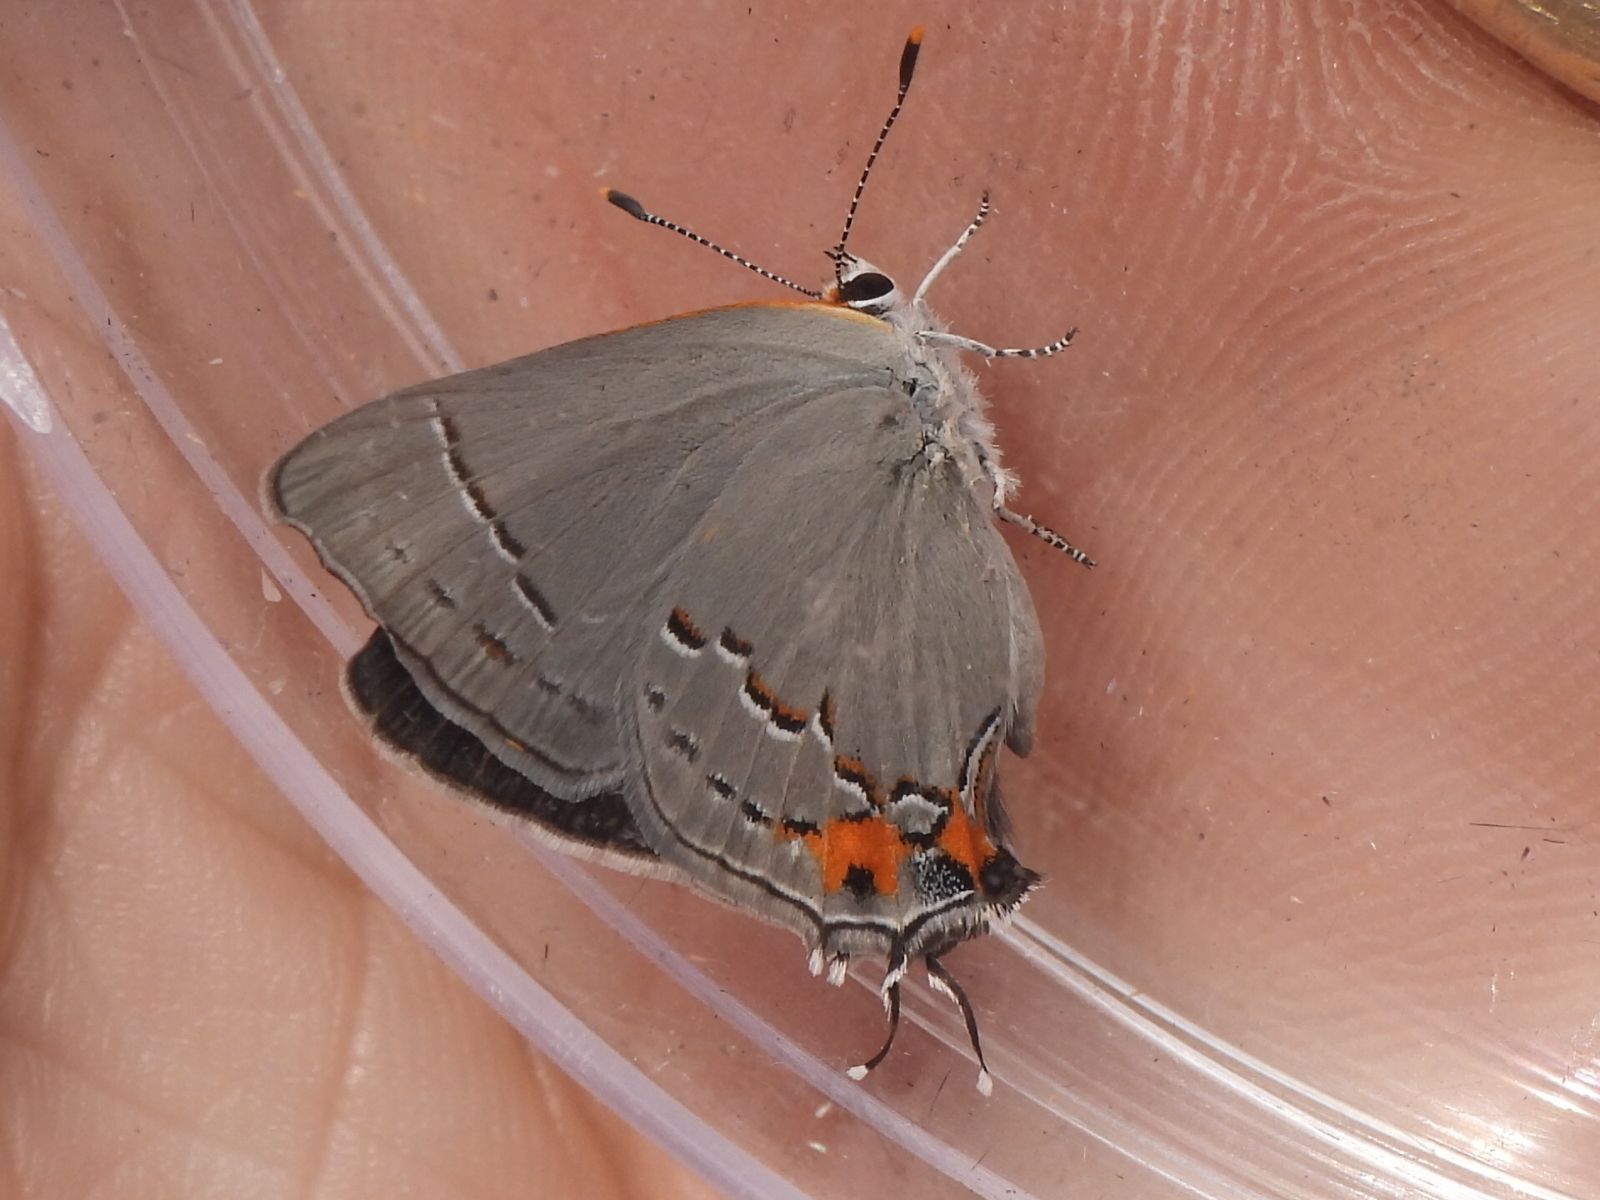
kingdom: Animalia
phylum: Arthropoda
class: Insecta
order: Lepidoptera
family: Lycaenidae
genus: Strymon
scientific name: Strymon melinus
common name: Gray hairstreak
